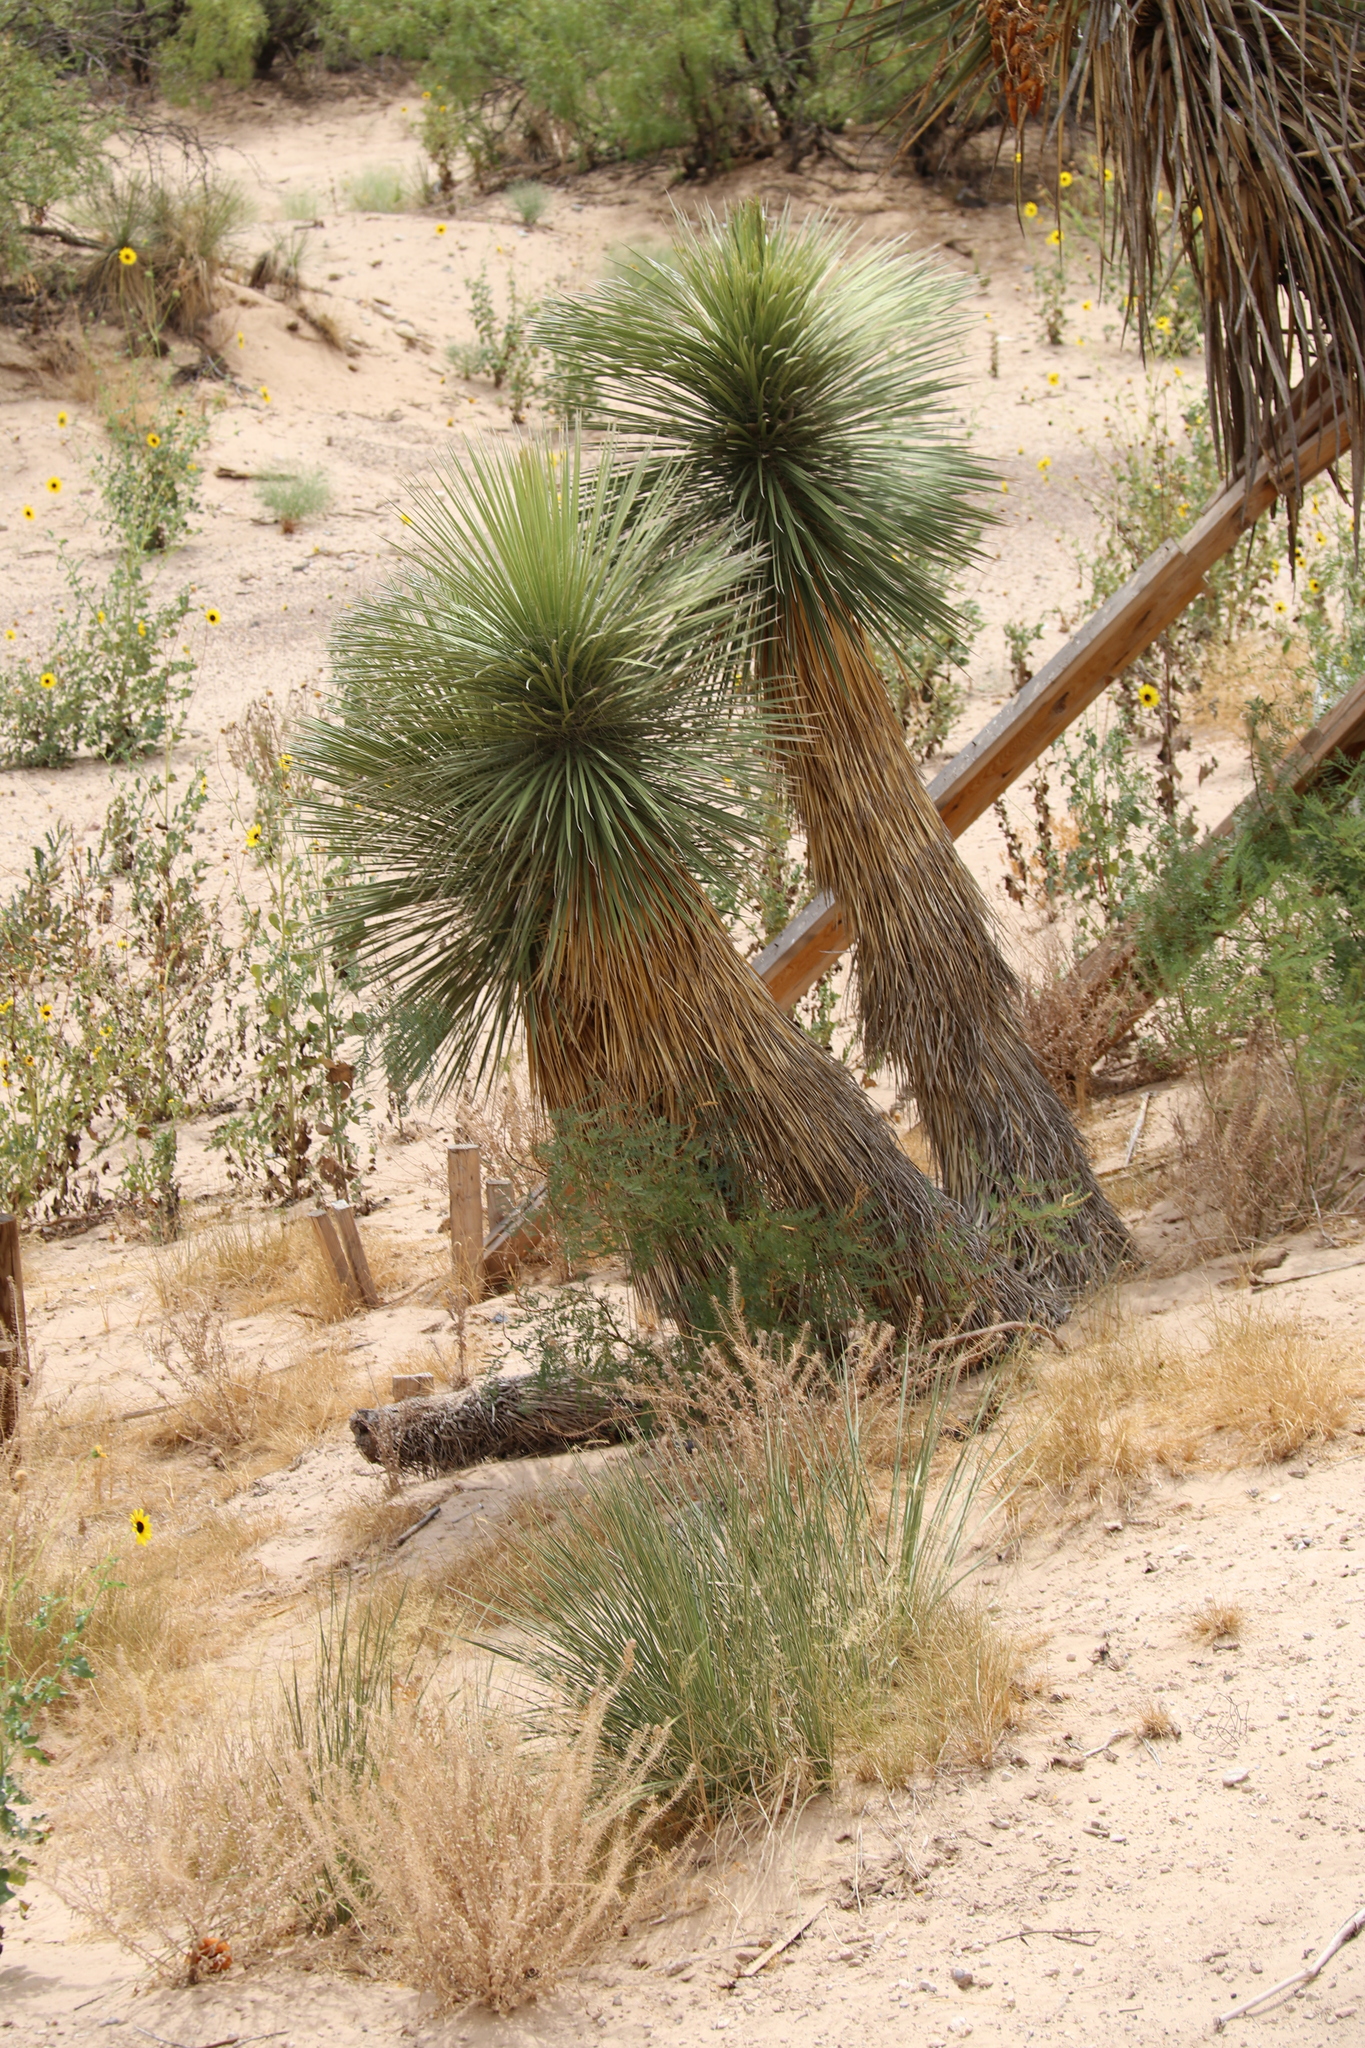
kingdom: Plantae
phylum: Tracheophyta
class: Liliopsida
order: Asparagales
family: Asparagaceae
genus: Yucca
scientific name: Yucca elata
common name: Palmella
